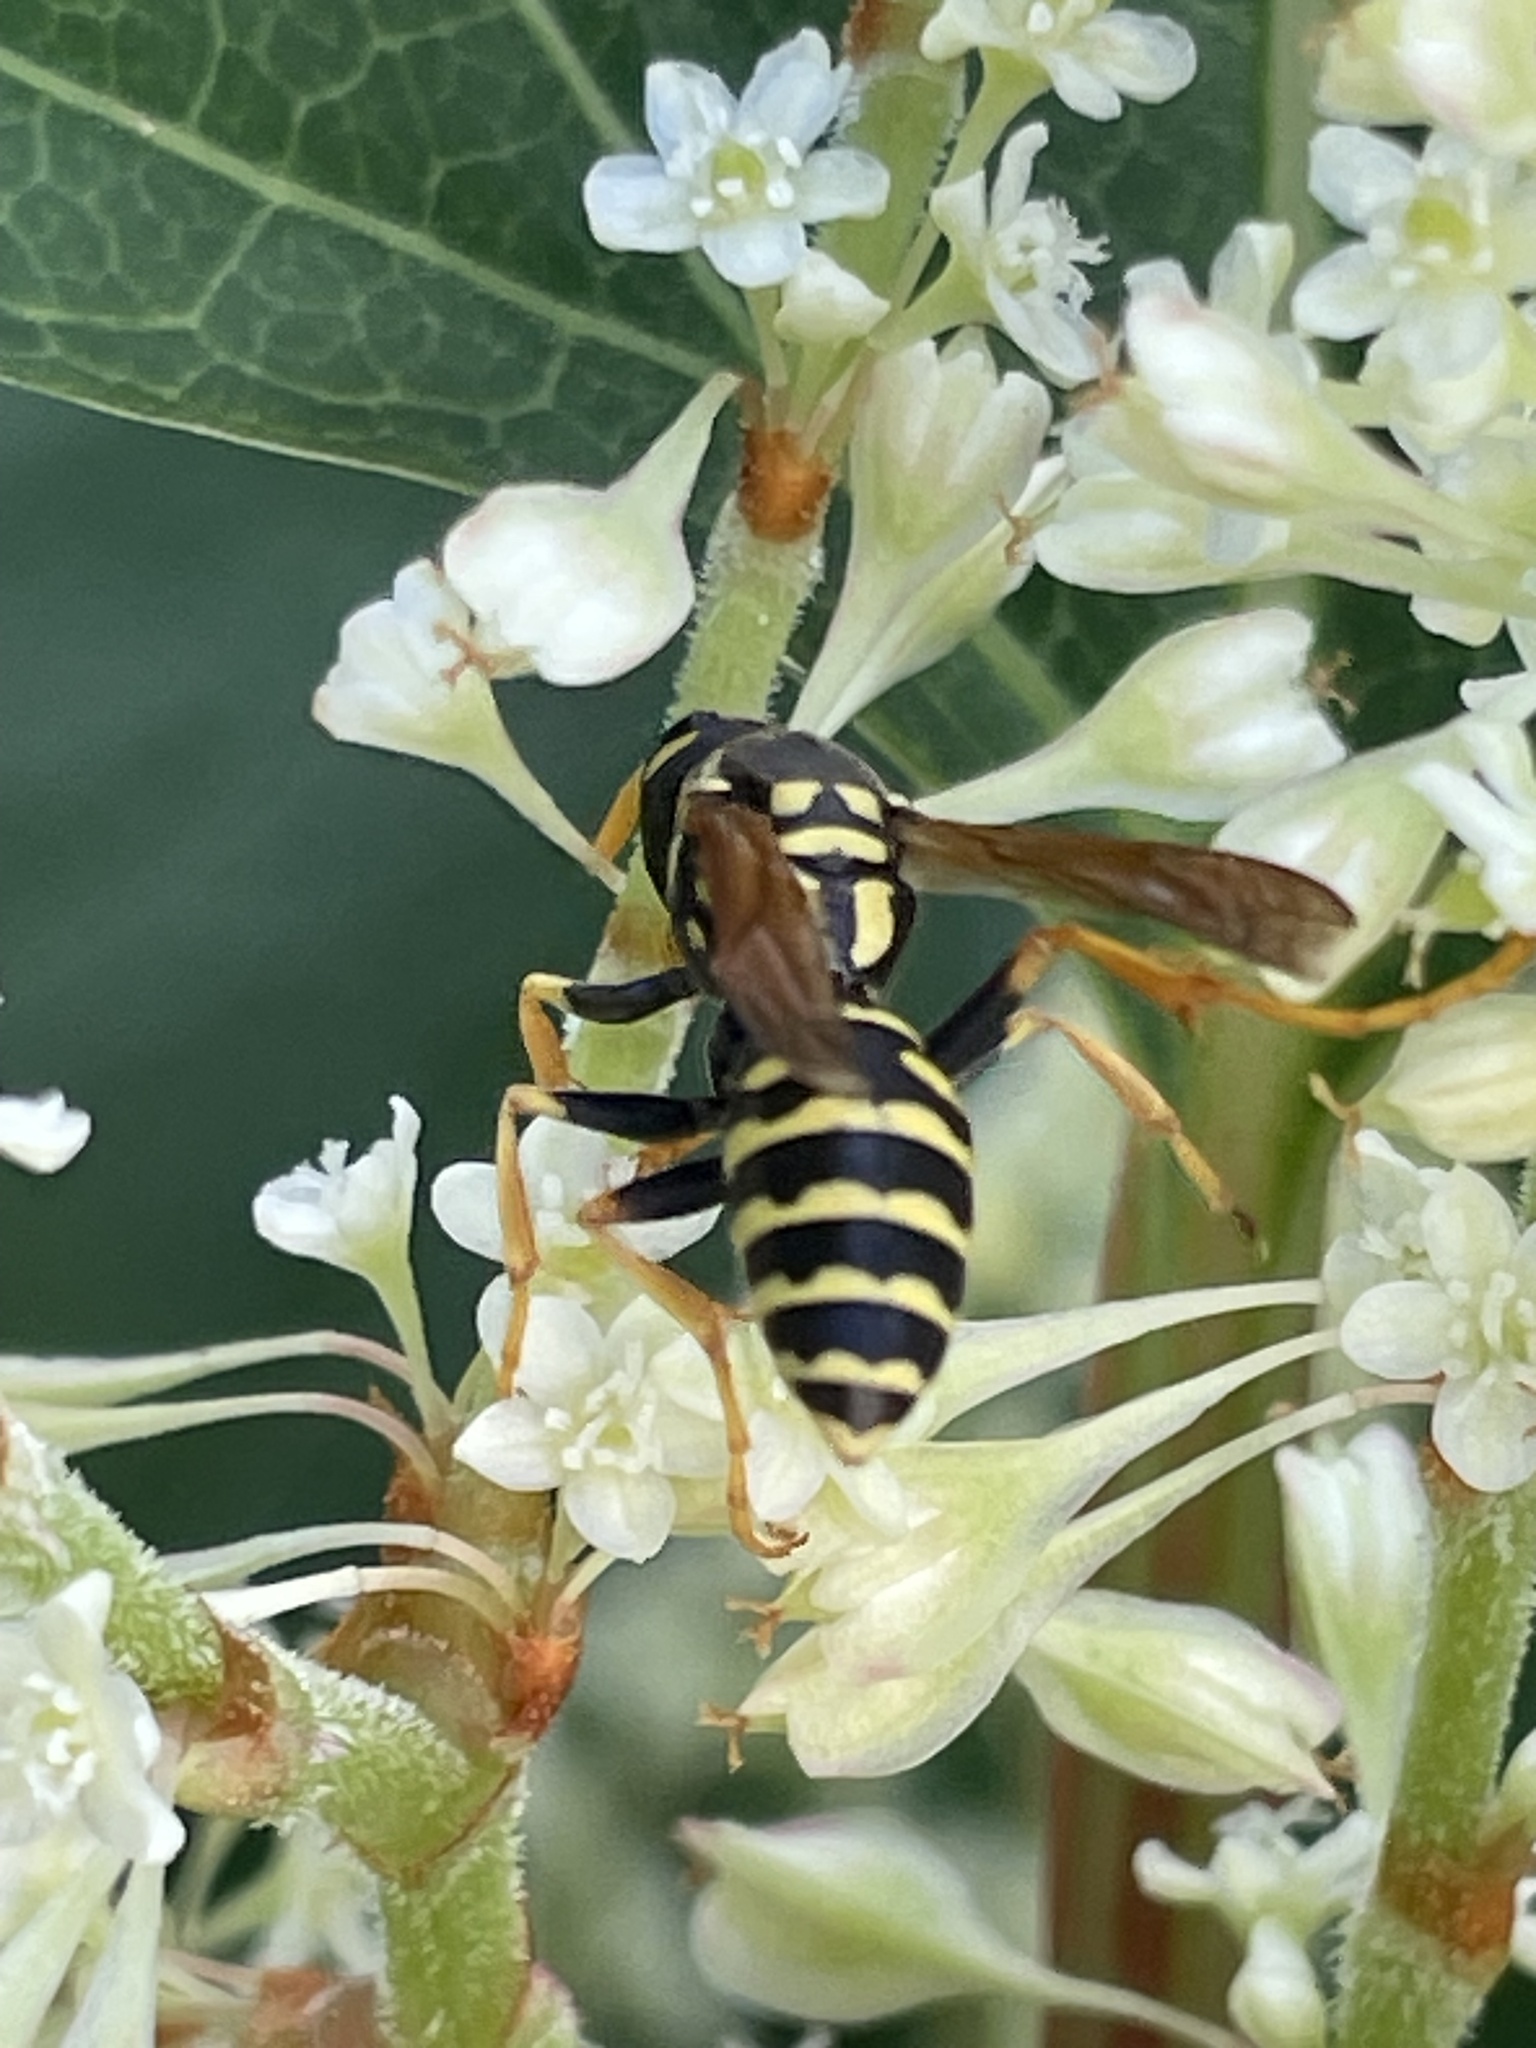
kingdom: Animalia
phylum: Arthropoda
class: Insecta
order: Hymenoptera
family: Eumenidae
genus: Polistes
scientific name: Polistes dominula
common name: Paper wasp
